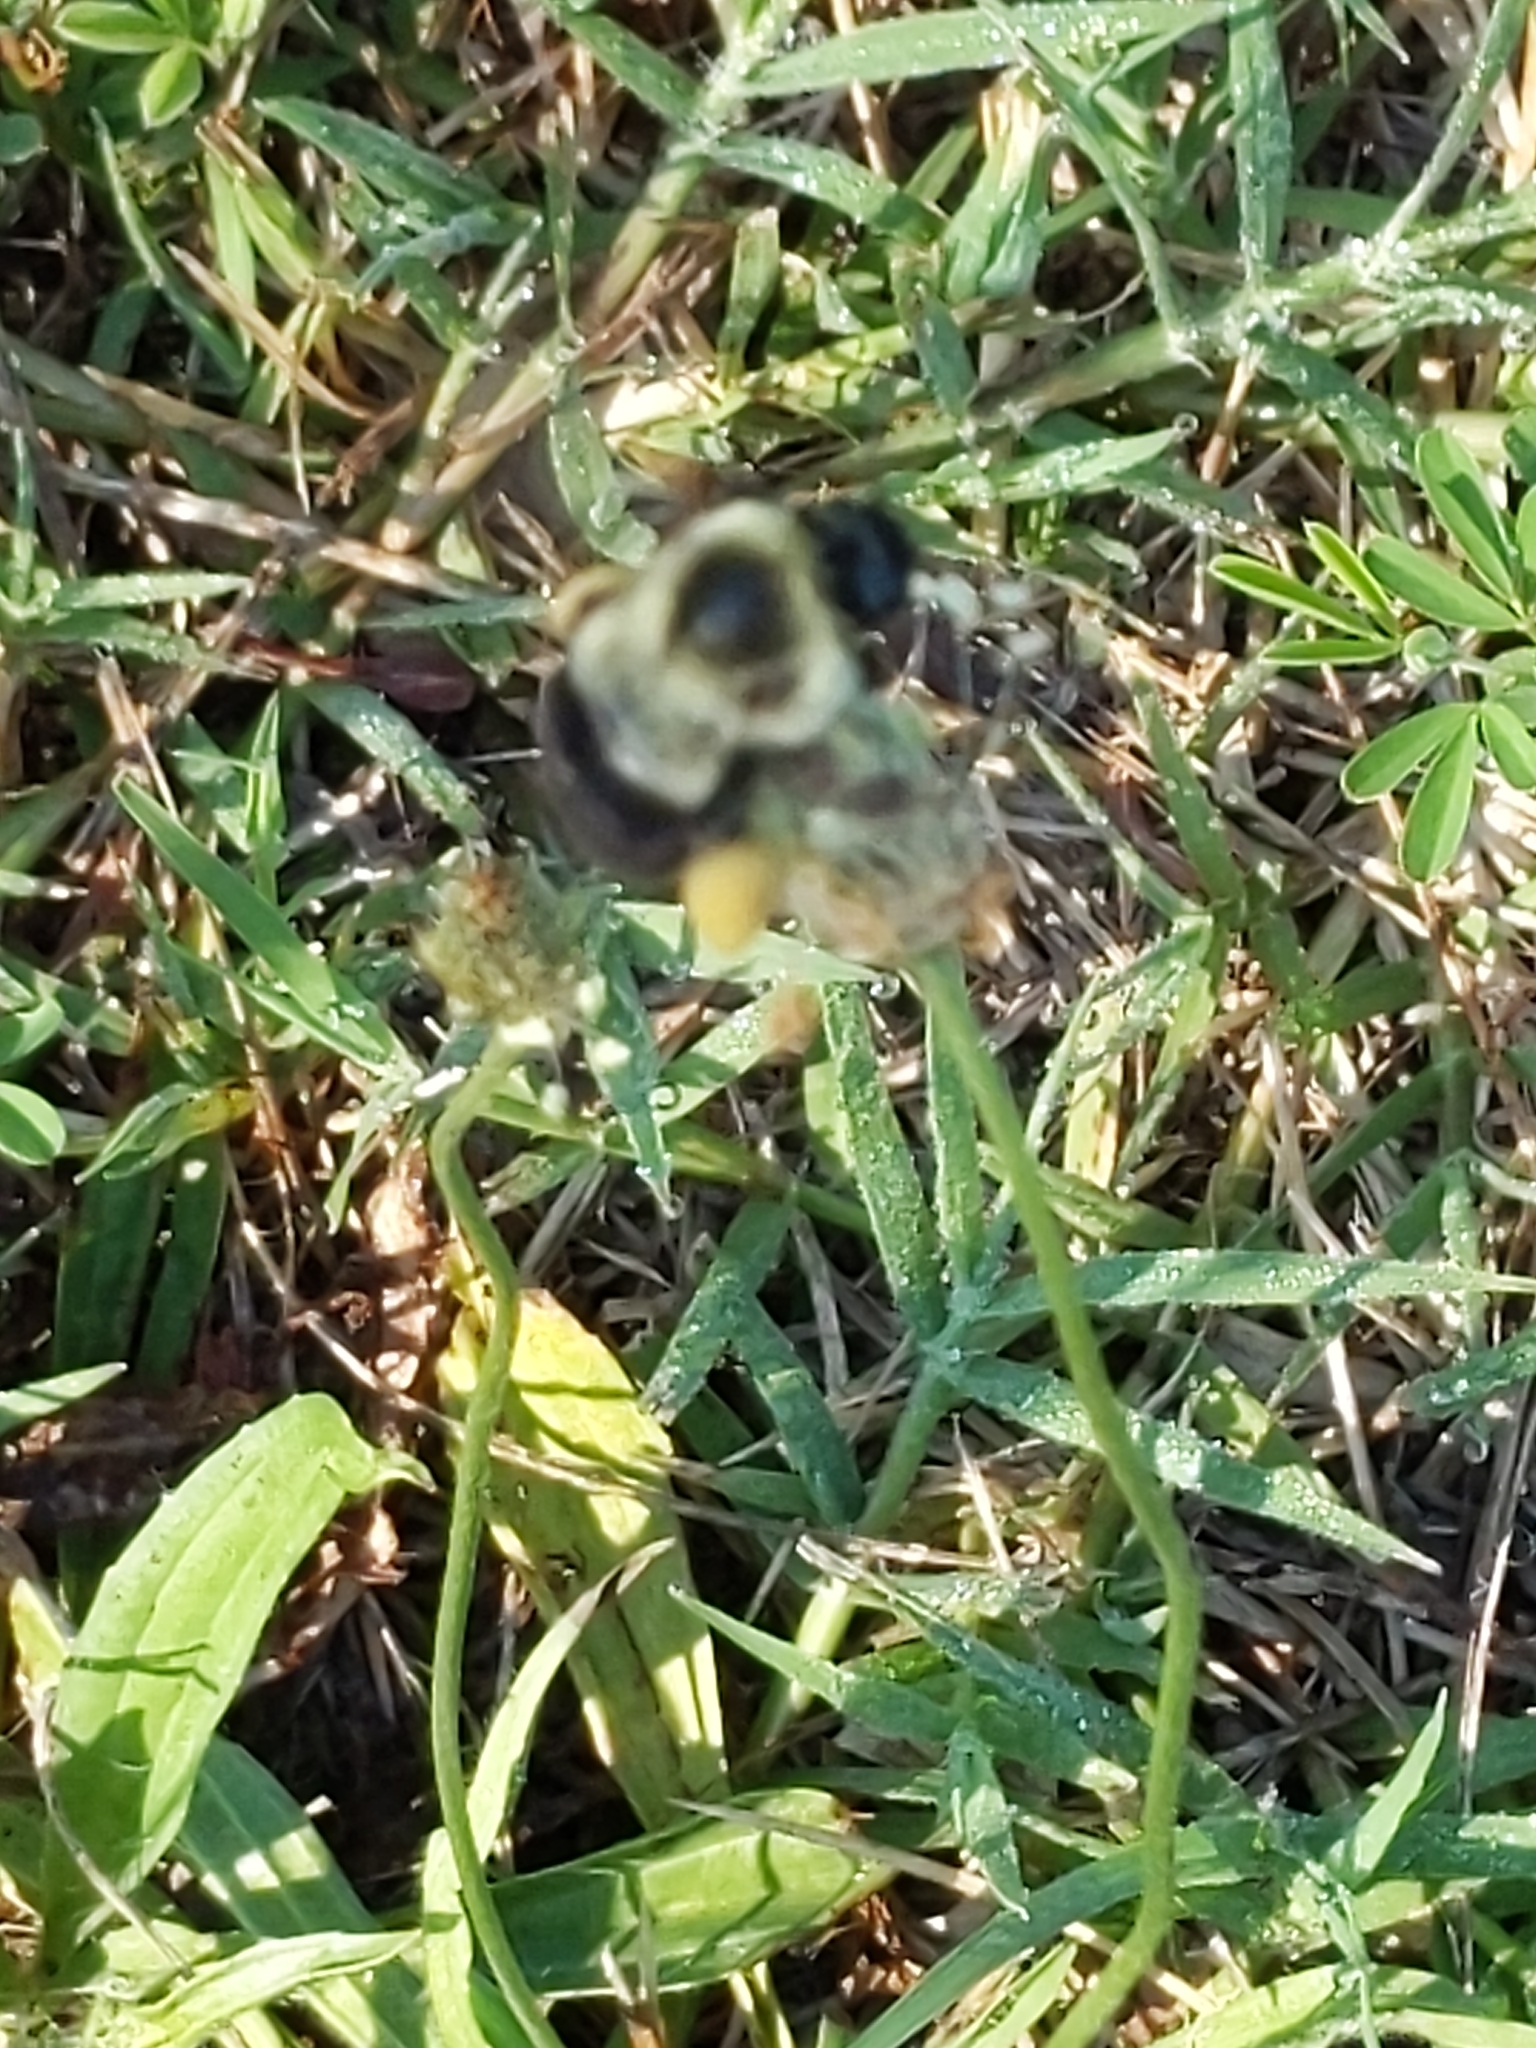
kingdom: Animalia
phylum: Arthropoda
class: Insecta
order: Hymenoptera
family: Apidae
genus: Bombus
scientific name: Bombus impatiens
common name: Common eastern bumble bee
